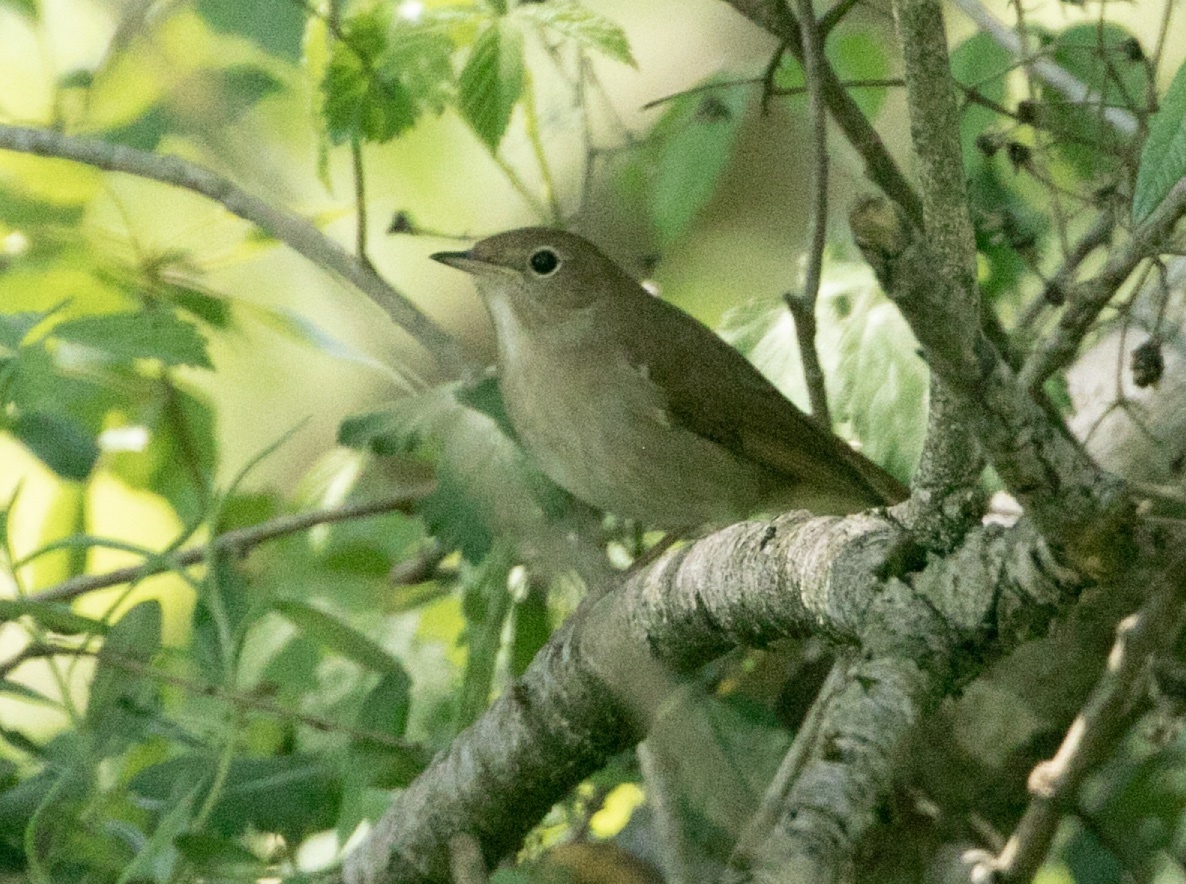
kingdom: Animalia
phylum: Chordata
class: Aves
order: Passeriformes
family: Muscicapidae
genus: Luscinia
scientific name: Luscinia megarhynchos
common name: Common nightingale
